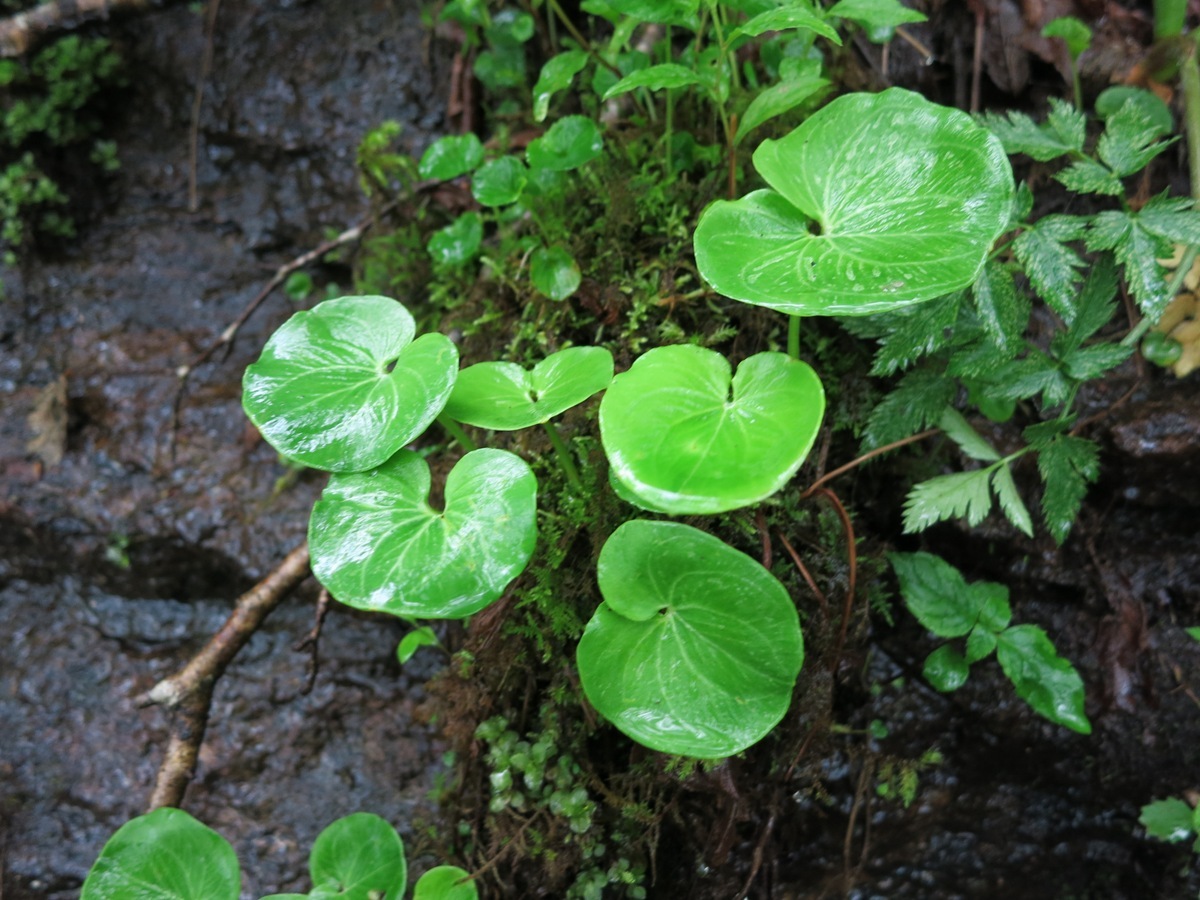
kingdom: Plantae
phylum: Tracheophyta
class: Magnoliopsida
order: Celastrales
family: Parnassiaceae
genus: Parnassia
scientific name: Parnassia asarifolia
